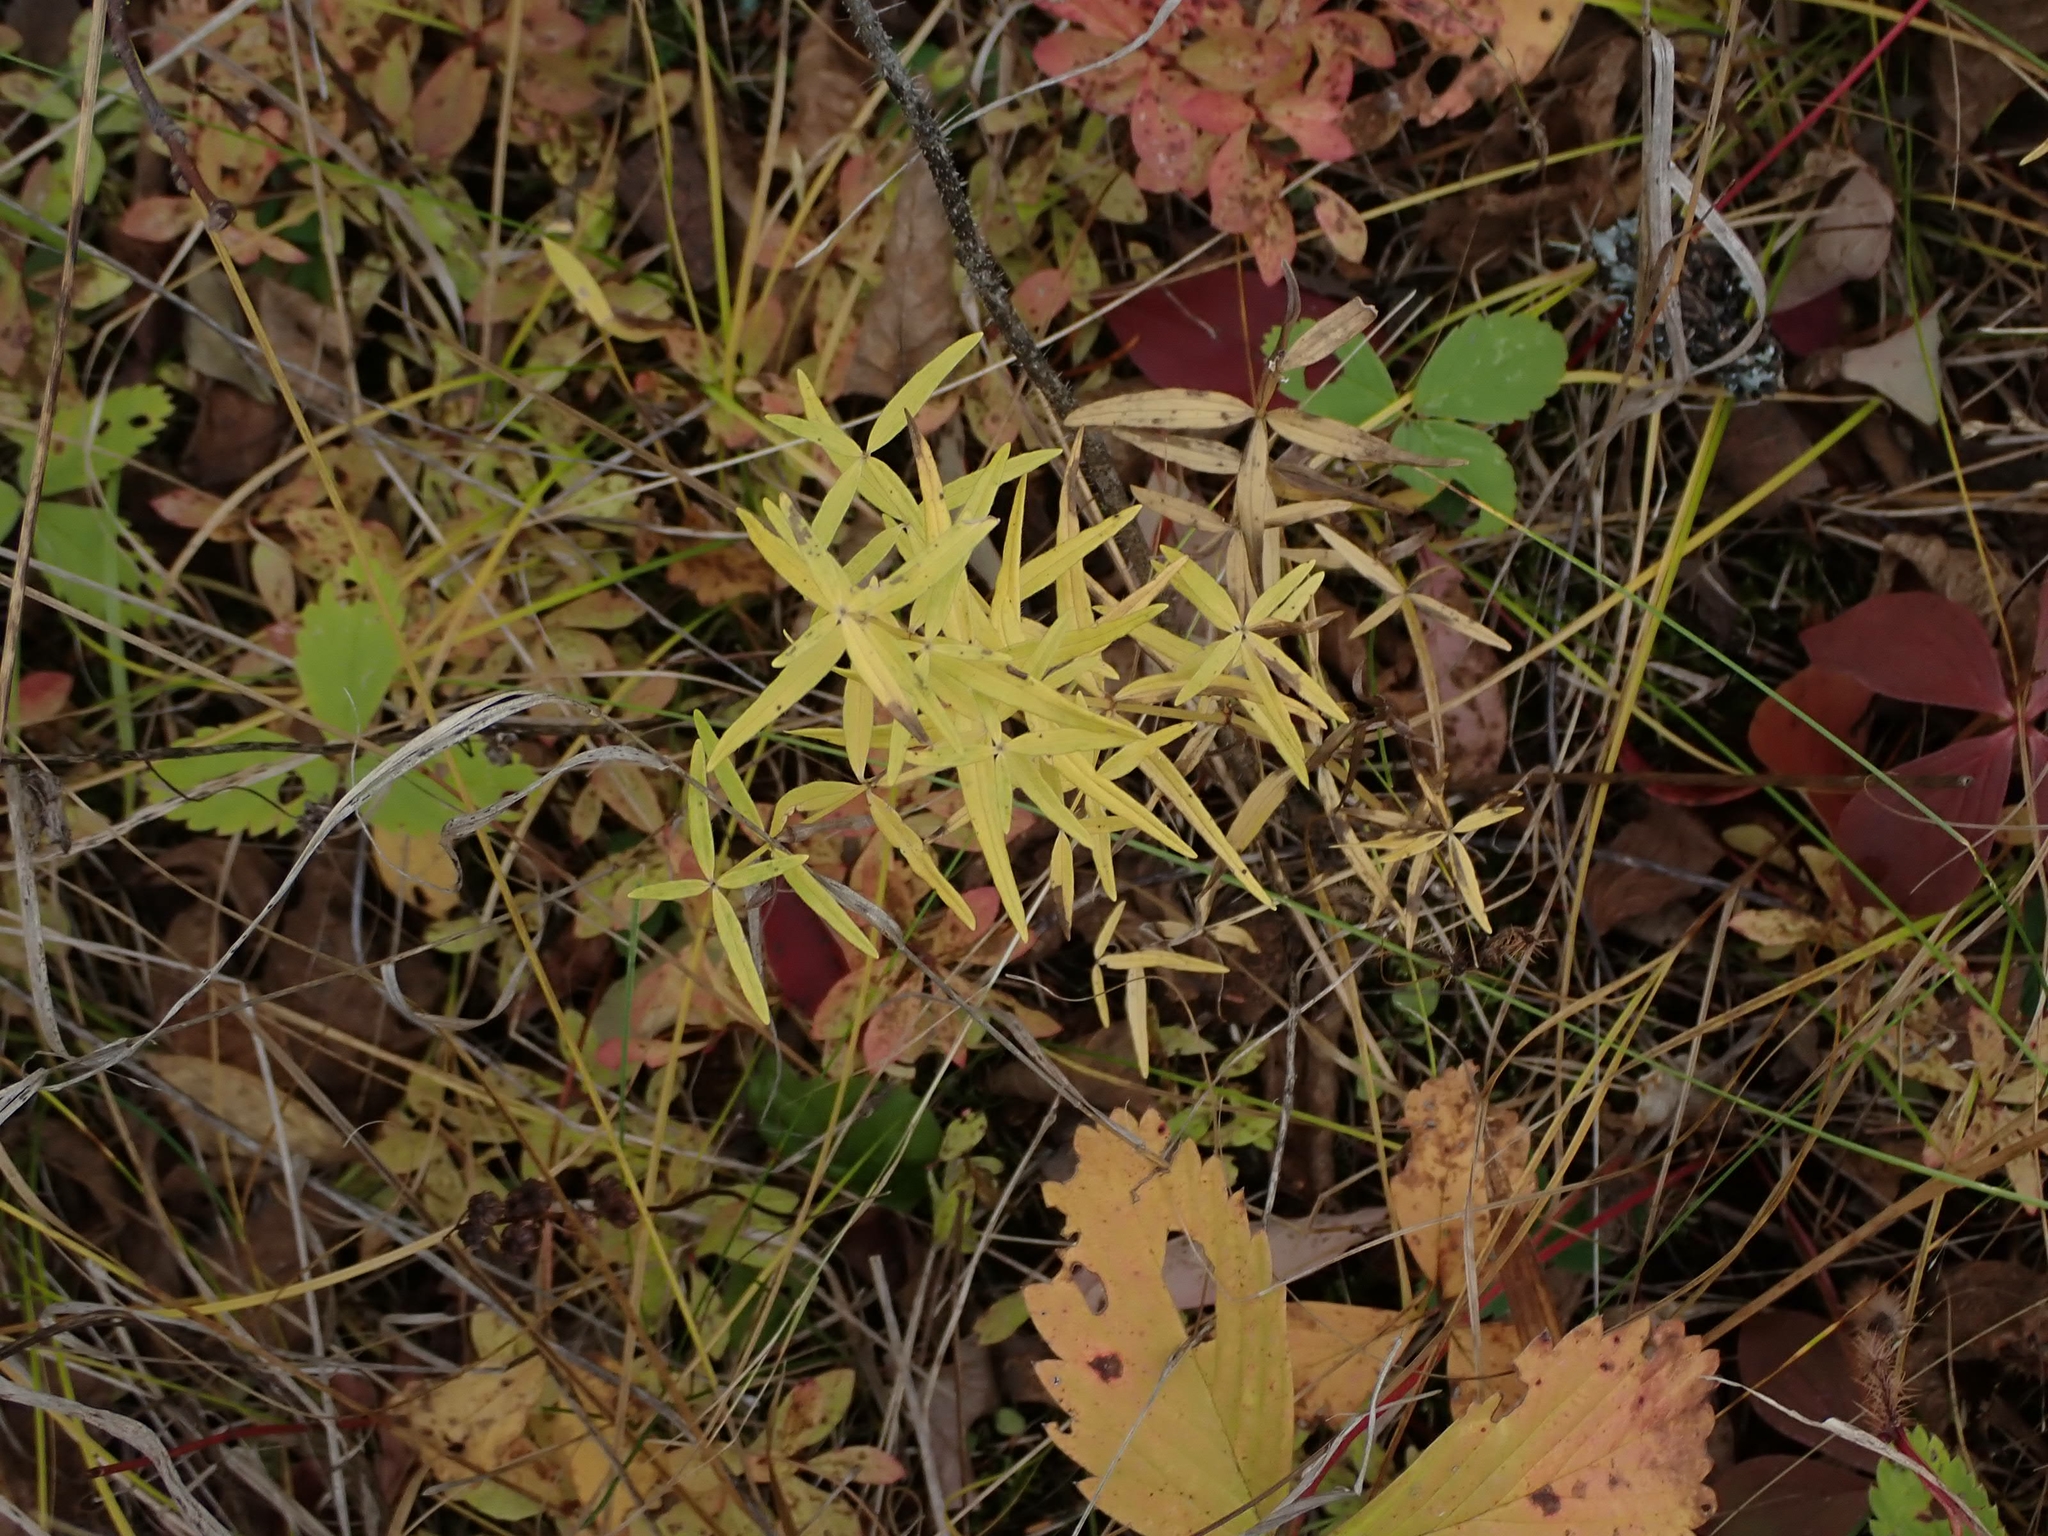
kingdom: Plantae
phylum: Tracheophyta
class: Magnoliopsida
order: Gentianales
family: Rubiaceae
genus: Galium
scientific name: Galium boreale
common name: Northern bedstraw
